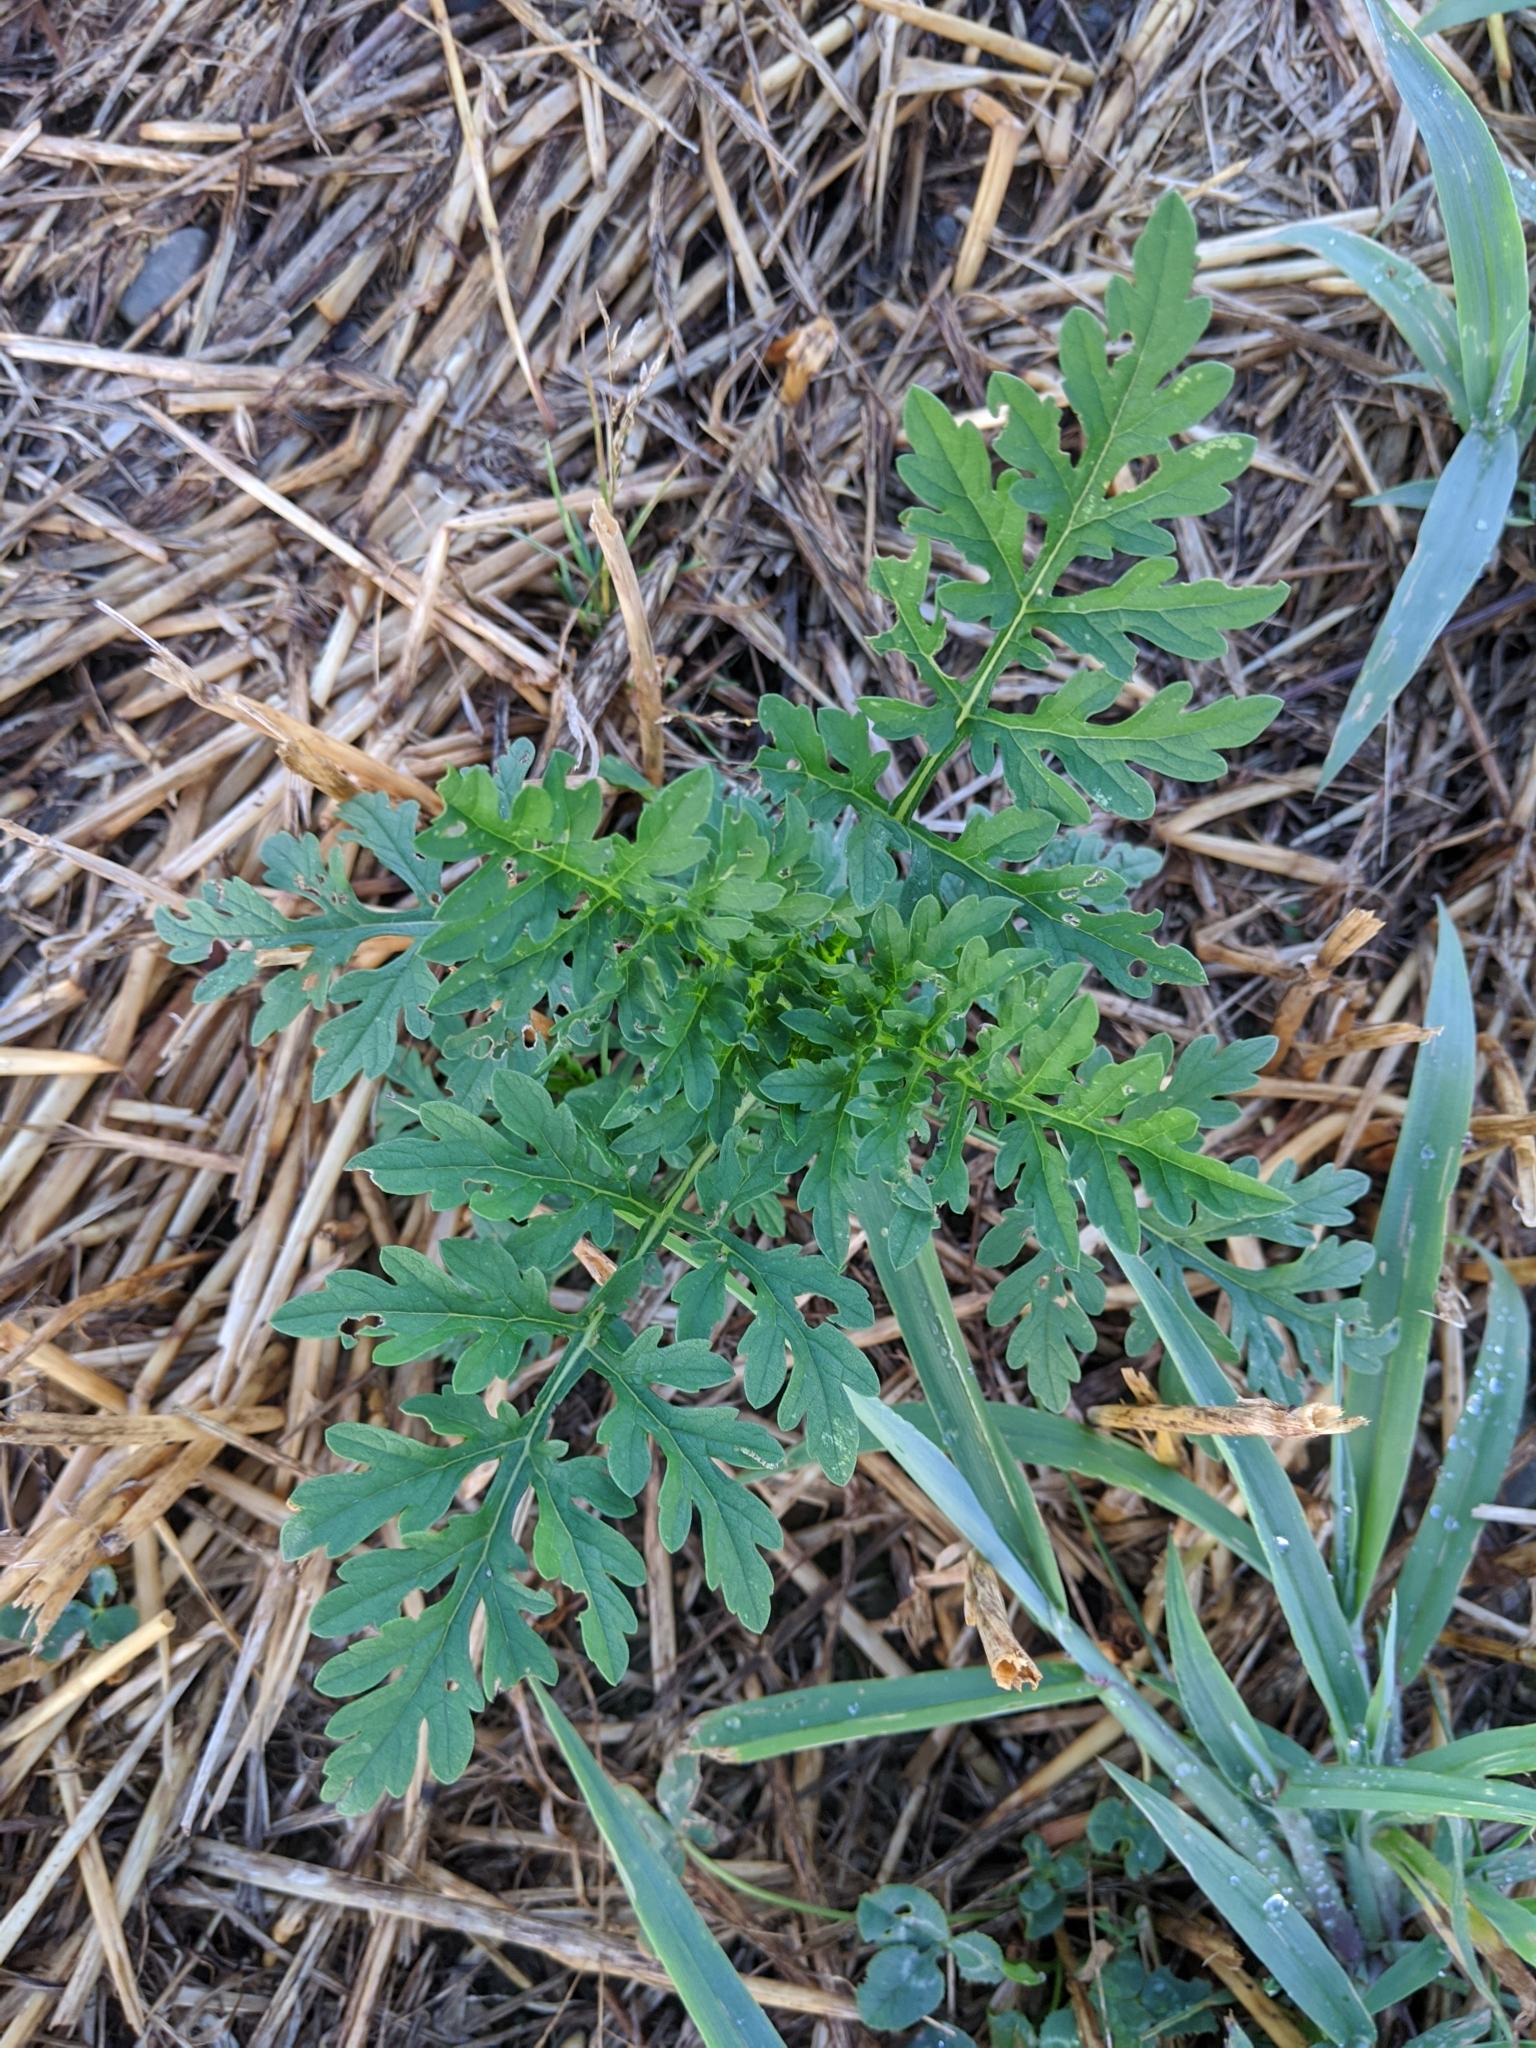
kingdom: Plantae
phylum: Tracheophyta
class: Magnoliopsida
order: Asterales
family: Asteraceae
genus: Ambrosia
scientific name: Ambrosia artemisiifolia
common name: Annual ragweed
